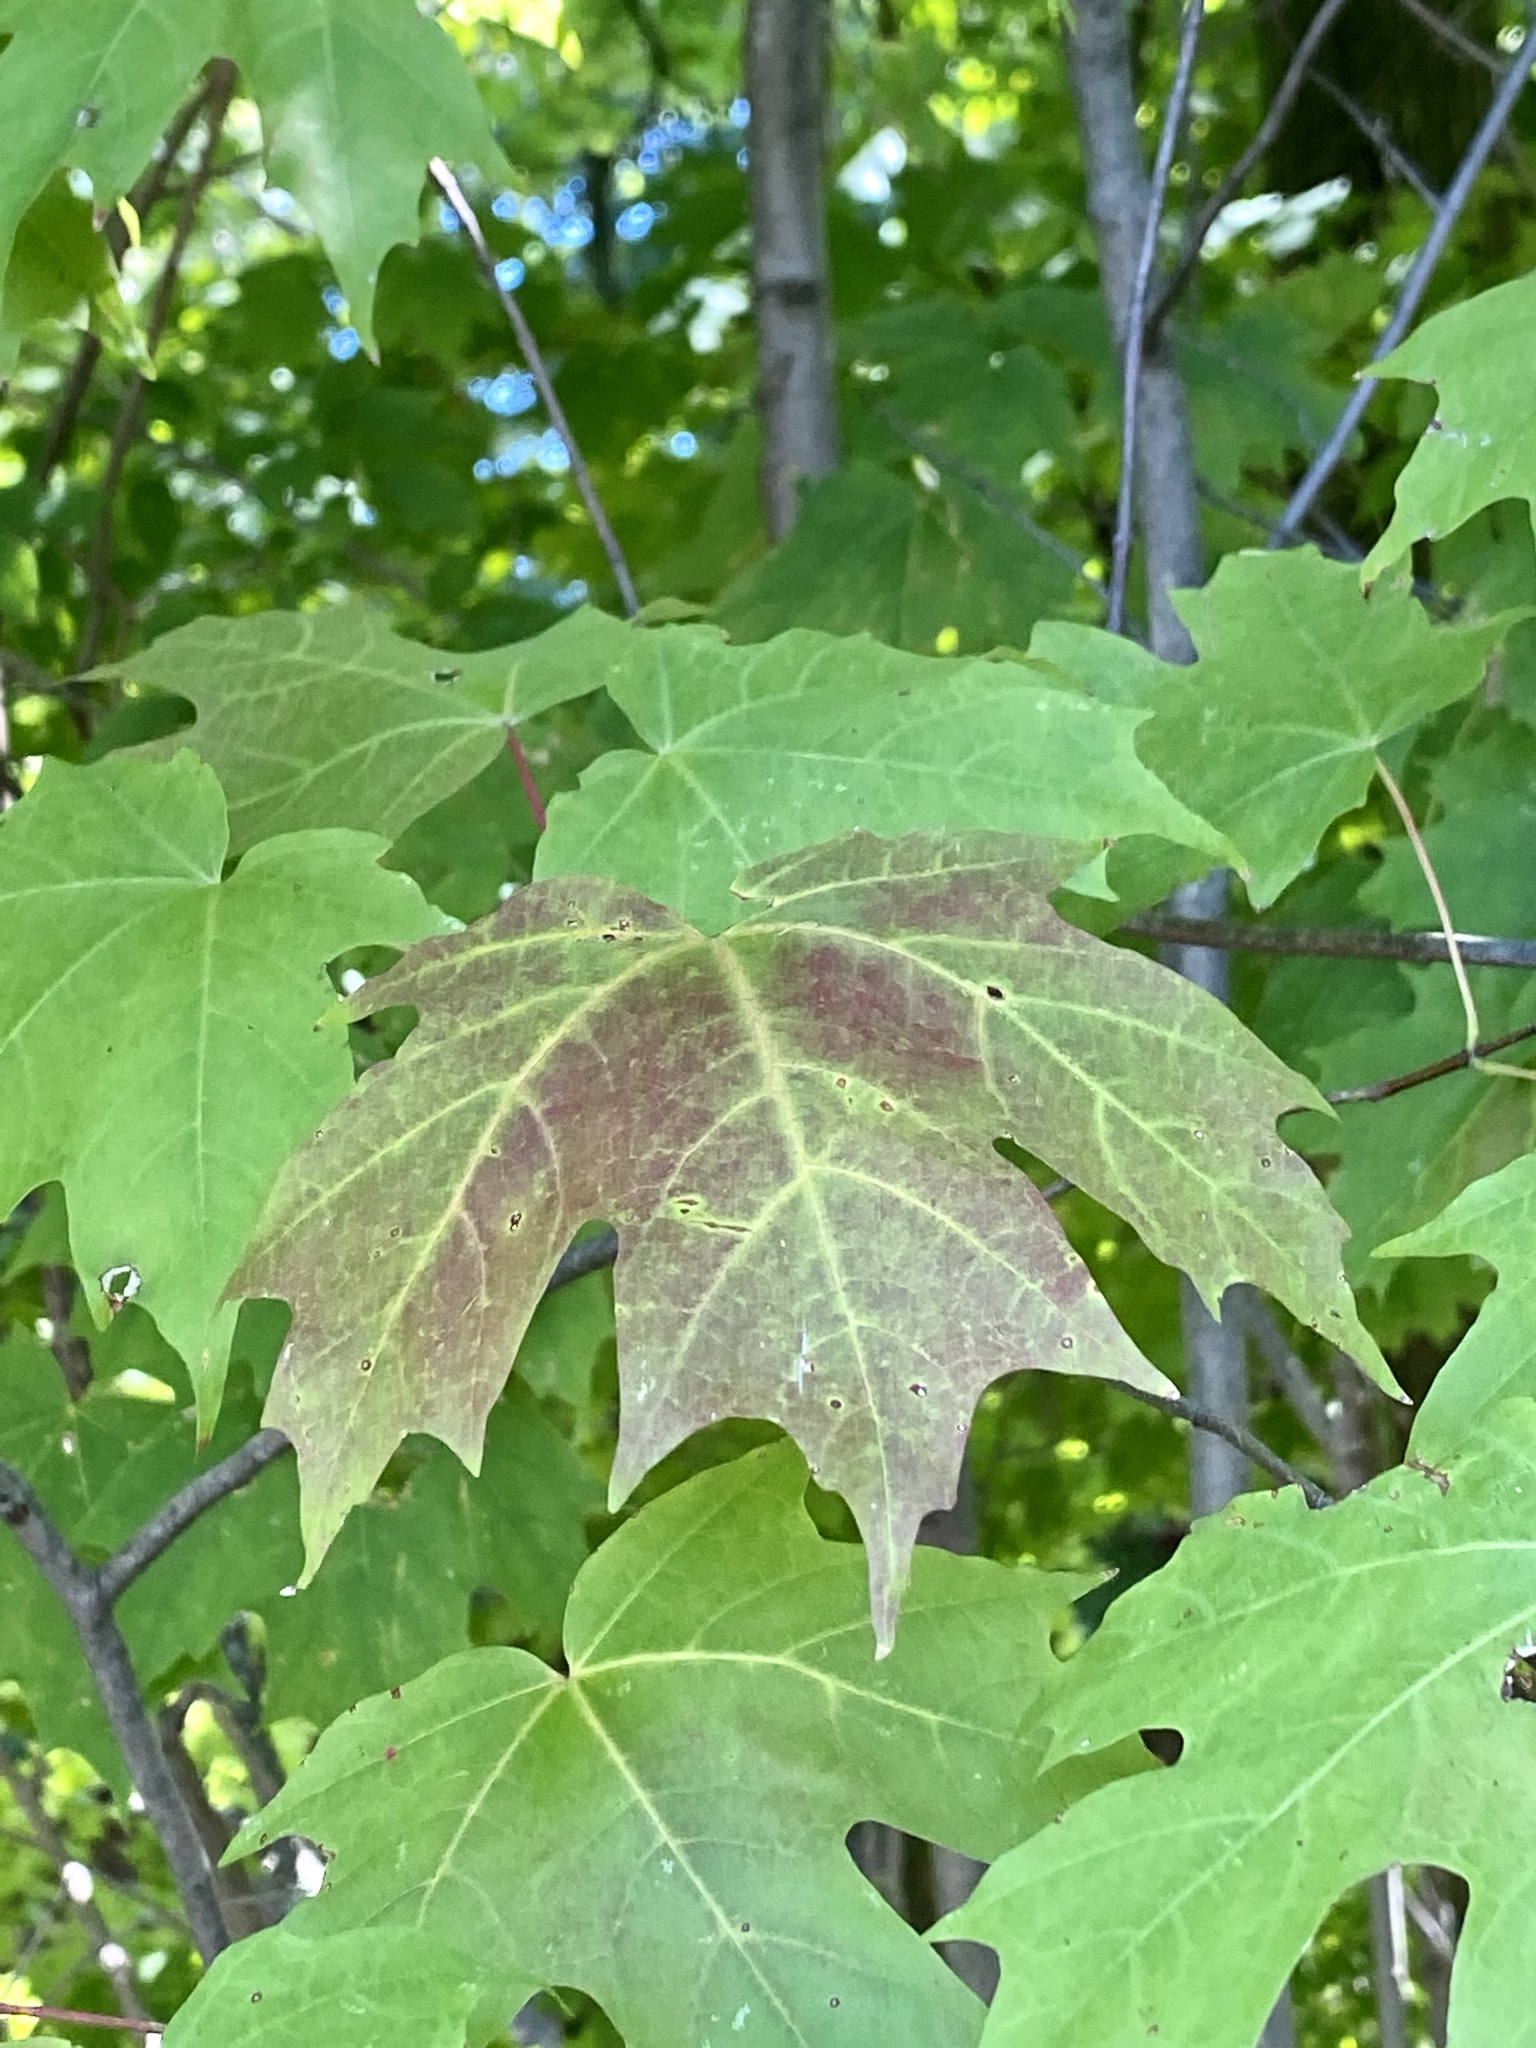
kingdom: Plantae
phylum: Tracheophyta
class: Magnoliopsida
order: Sapindales
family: Sapindaceae
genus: Acer
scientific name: Acer saccharum
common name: Sugar maple
